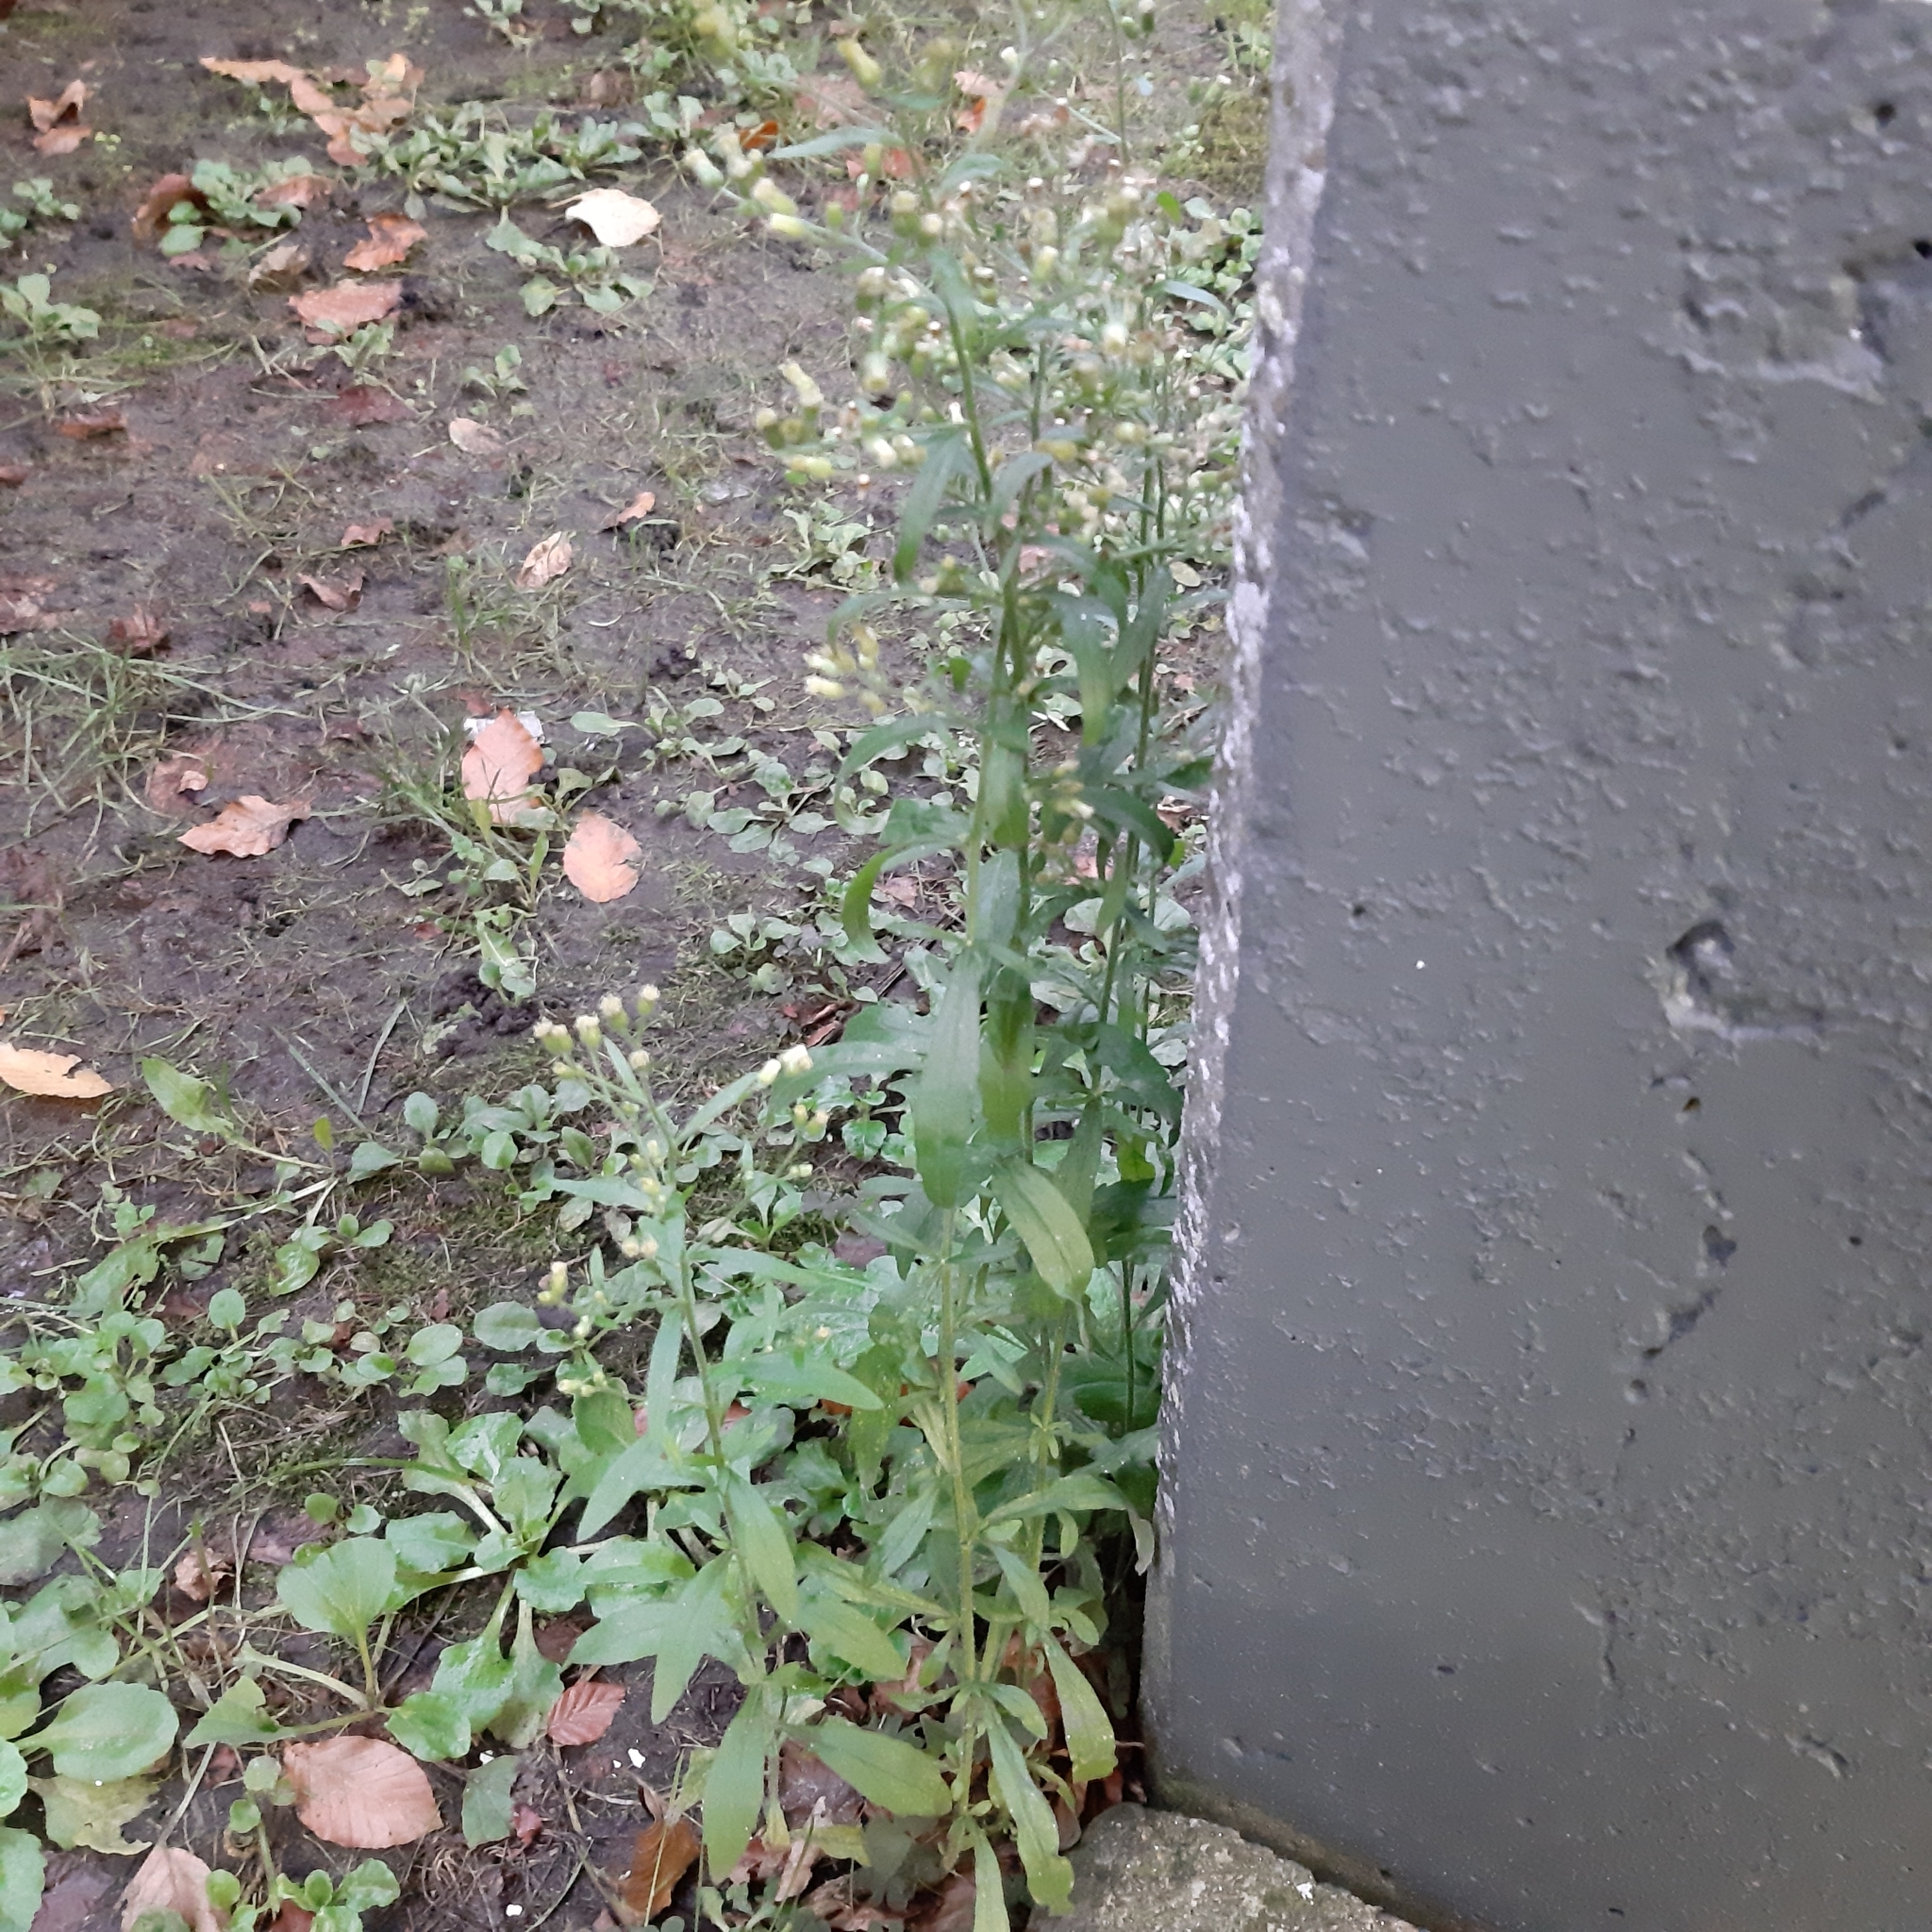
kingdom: Plantae
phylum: Tracheophyta
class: Magnoliopsida
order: Asterales
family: Asteraceae
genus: Erigeron
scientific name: Erigeron sumatrensis
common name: Daisy
